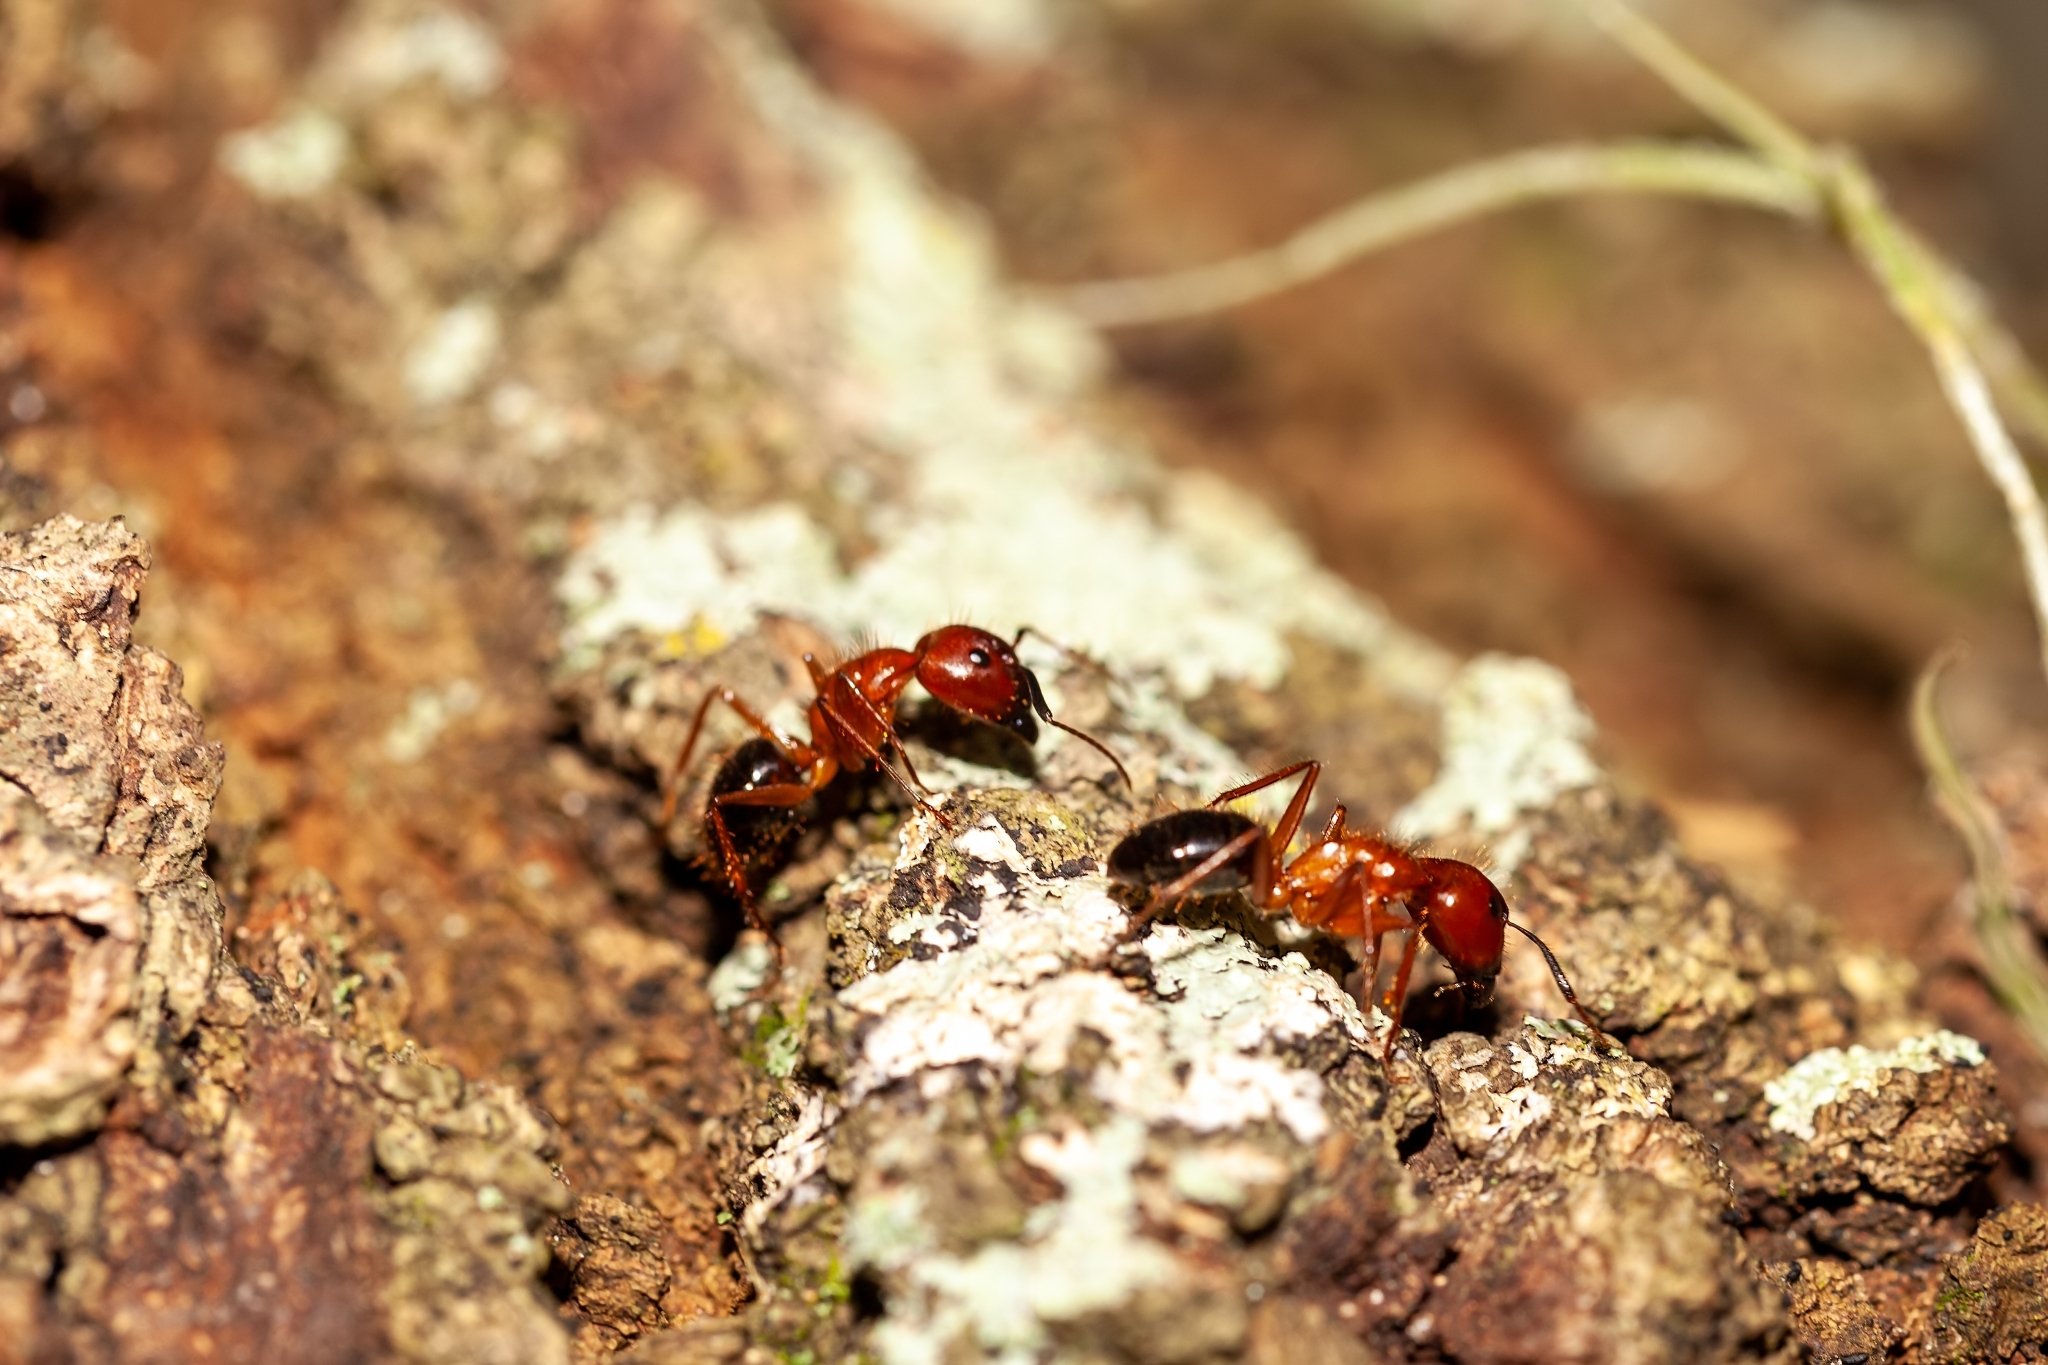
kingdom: Animalia
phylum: Arthropoda
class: Insecta
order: Hymenoptera
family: Formicidae
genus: Camponotus
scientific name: Camponotus floridanus
